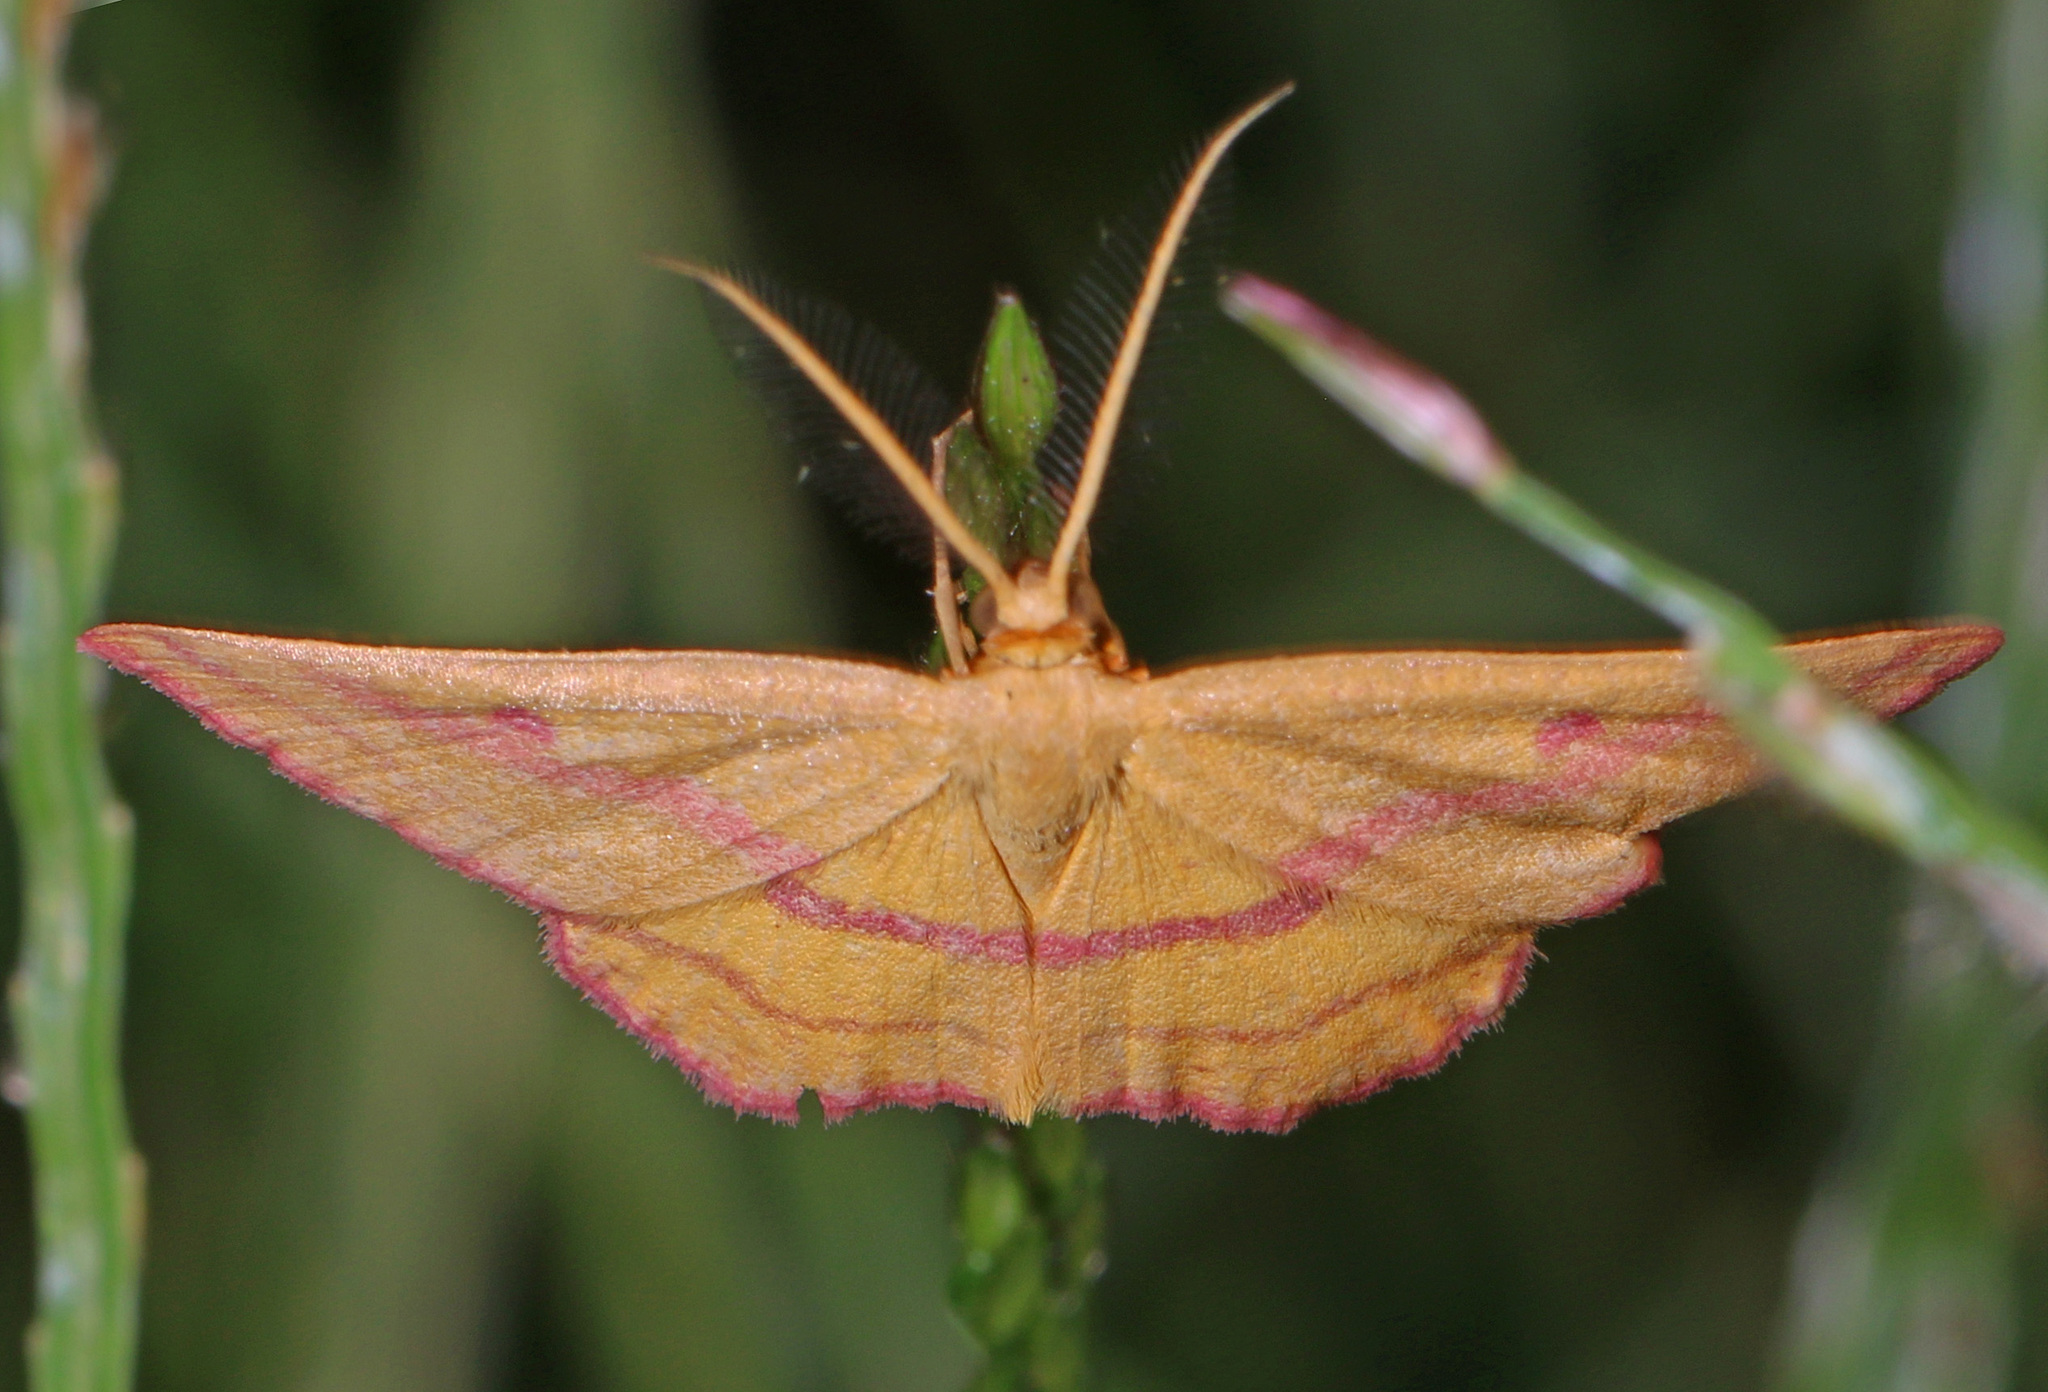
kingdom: Animalia
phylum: Arthropoda
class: Insecta
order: Lepidoptera
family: Geometridae
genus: Haematopis
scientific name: Haematopis grataria
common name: Chickweed geometer
